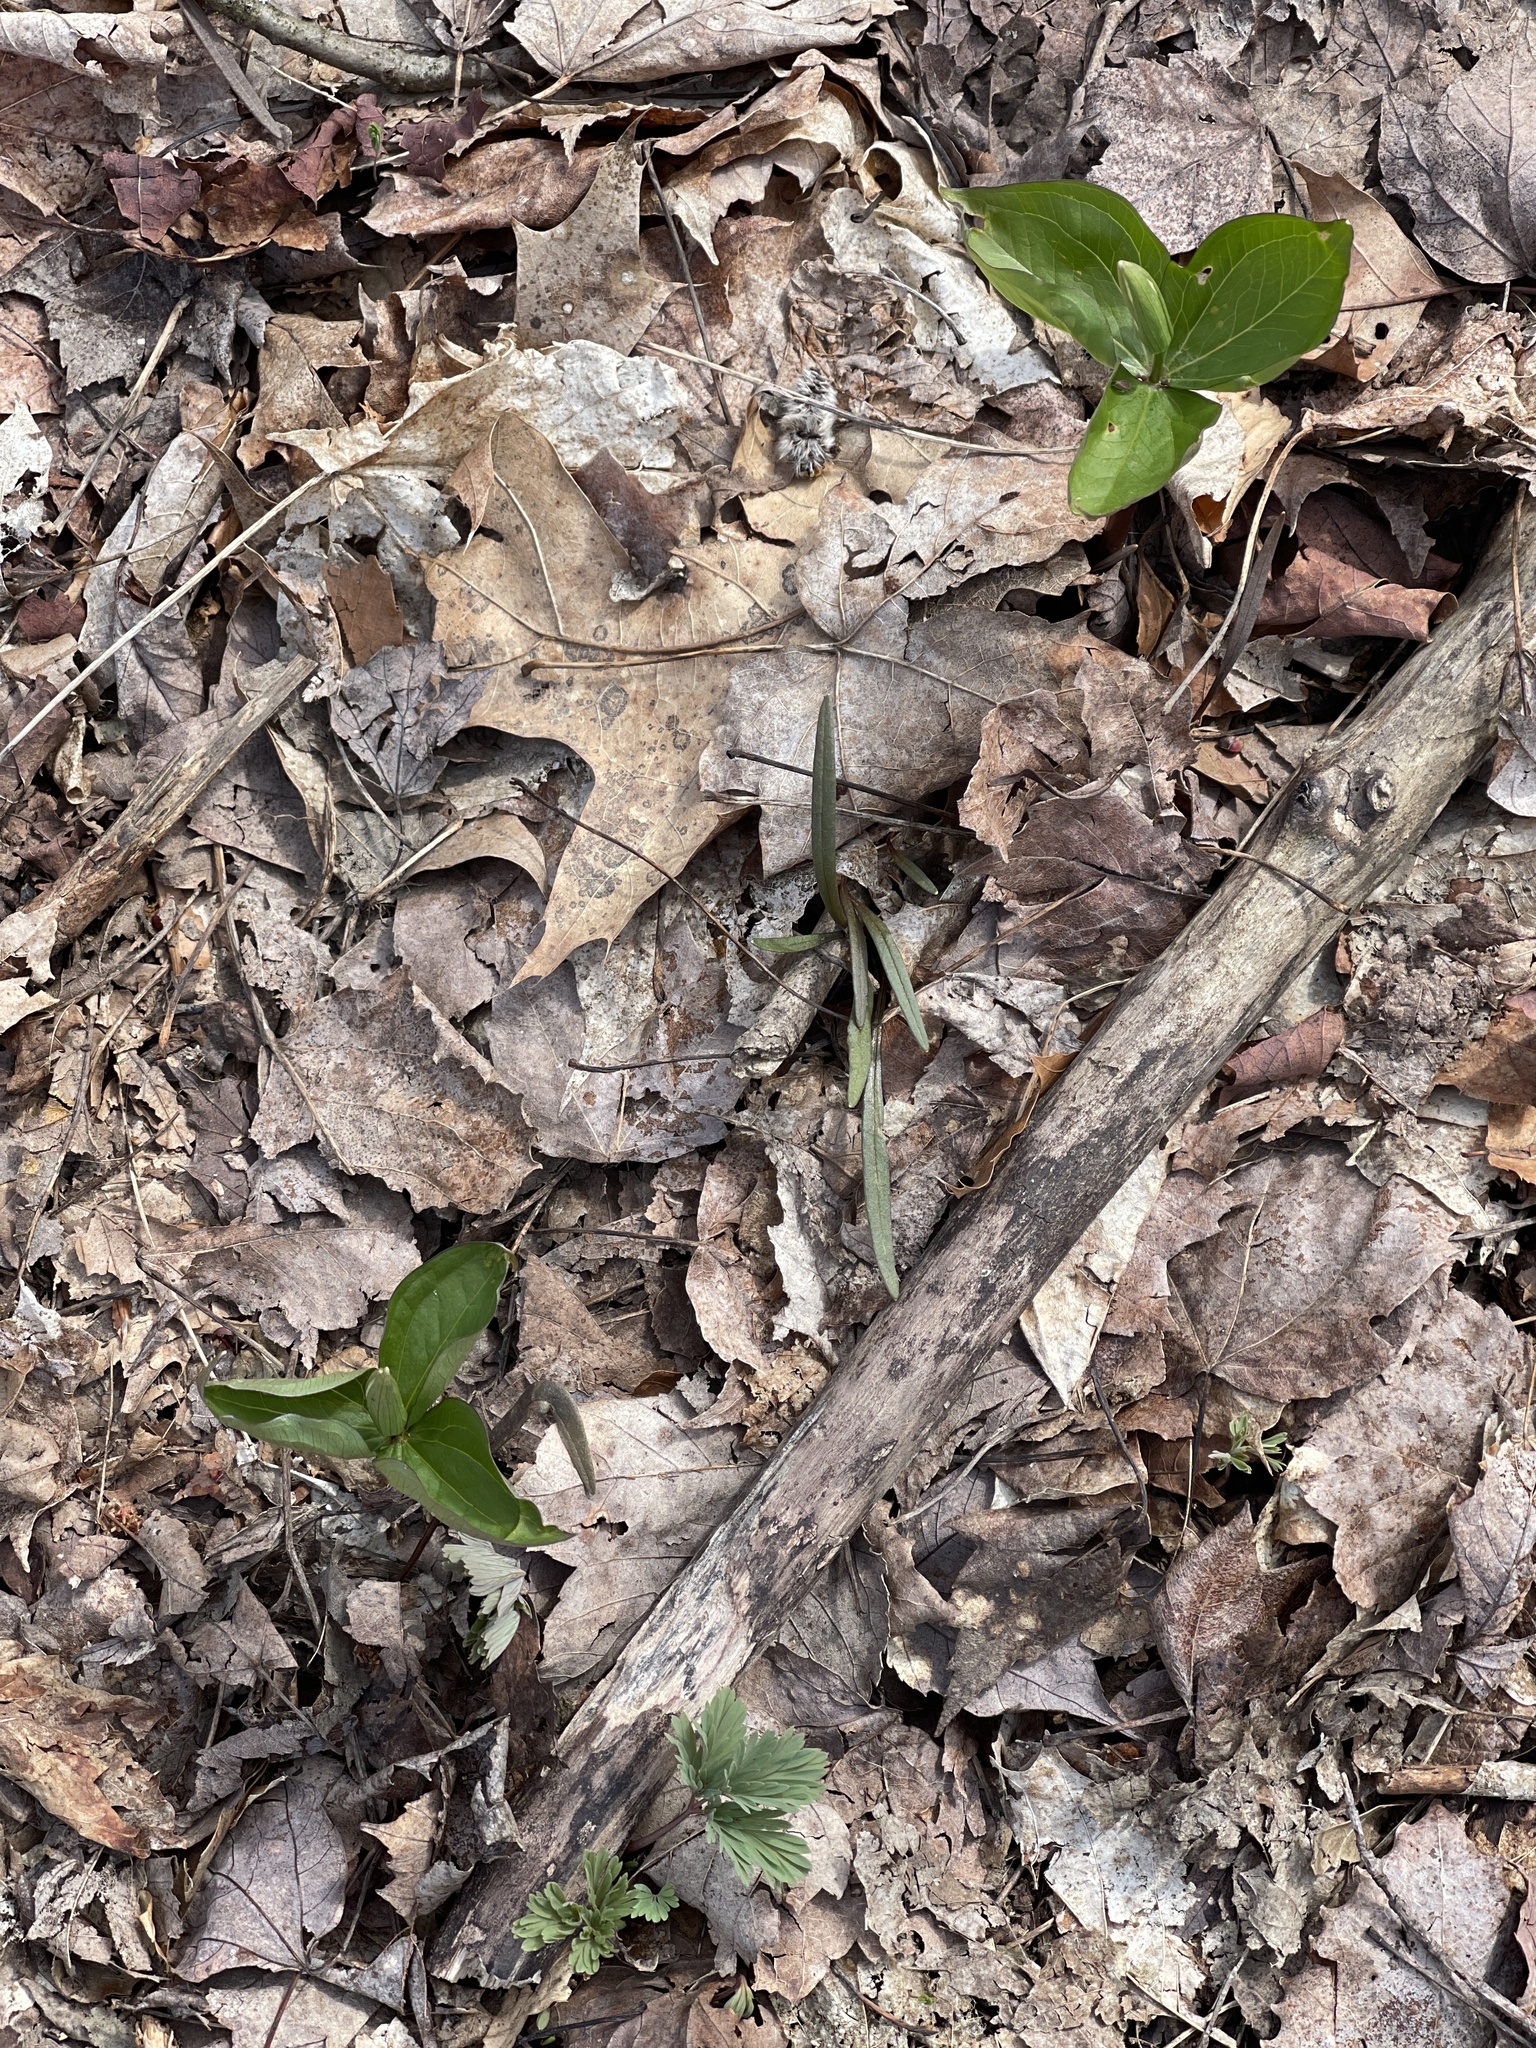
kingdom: Plantae
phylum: Tracheophyta
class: Liliopsida
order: Liliales
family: Melanthiaceae
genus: Trillium
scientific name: Trillium grandiflorum
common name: Great white trillium
